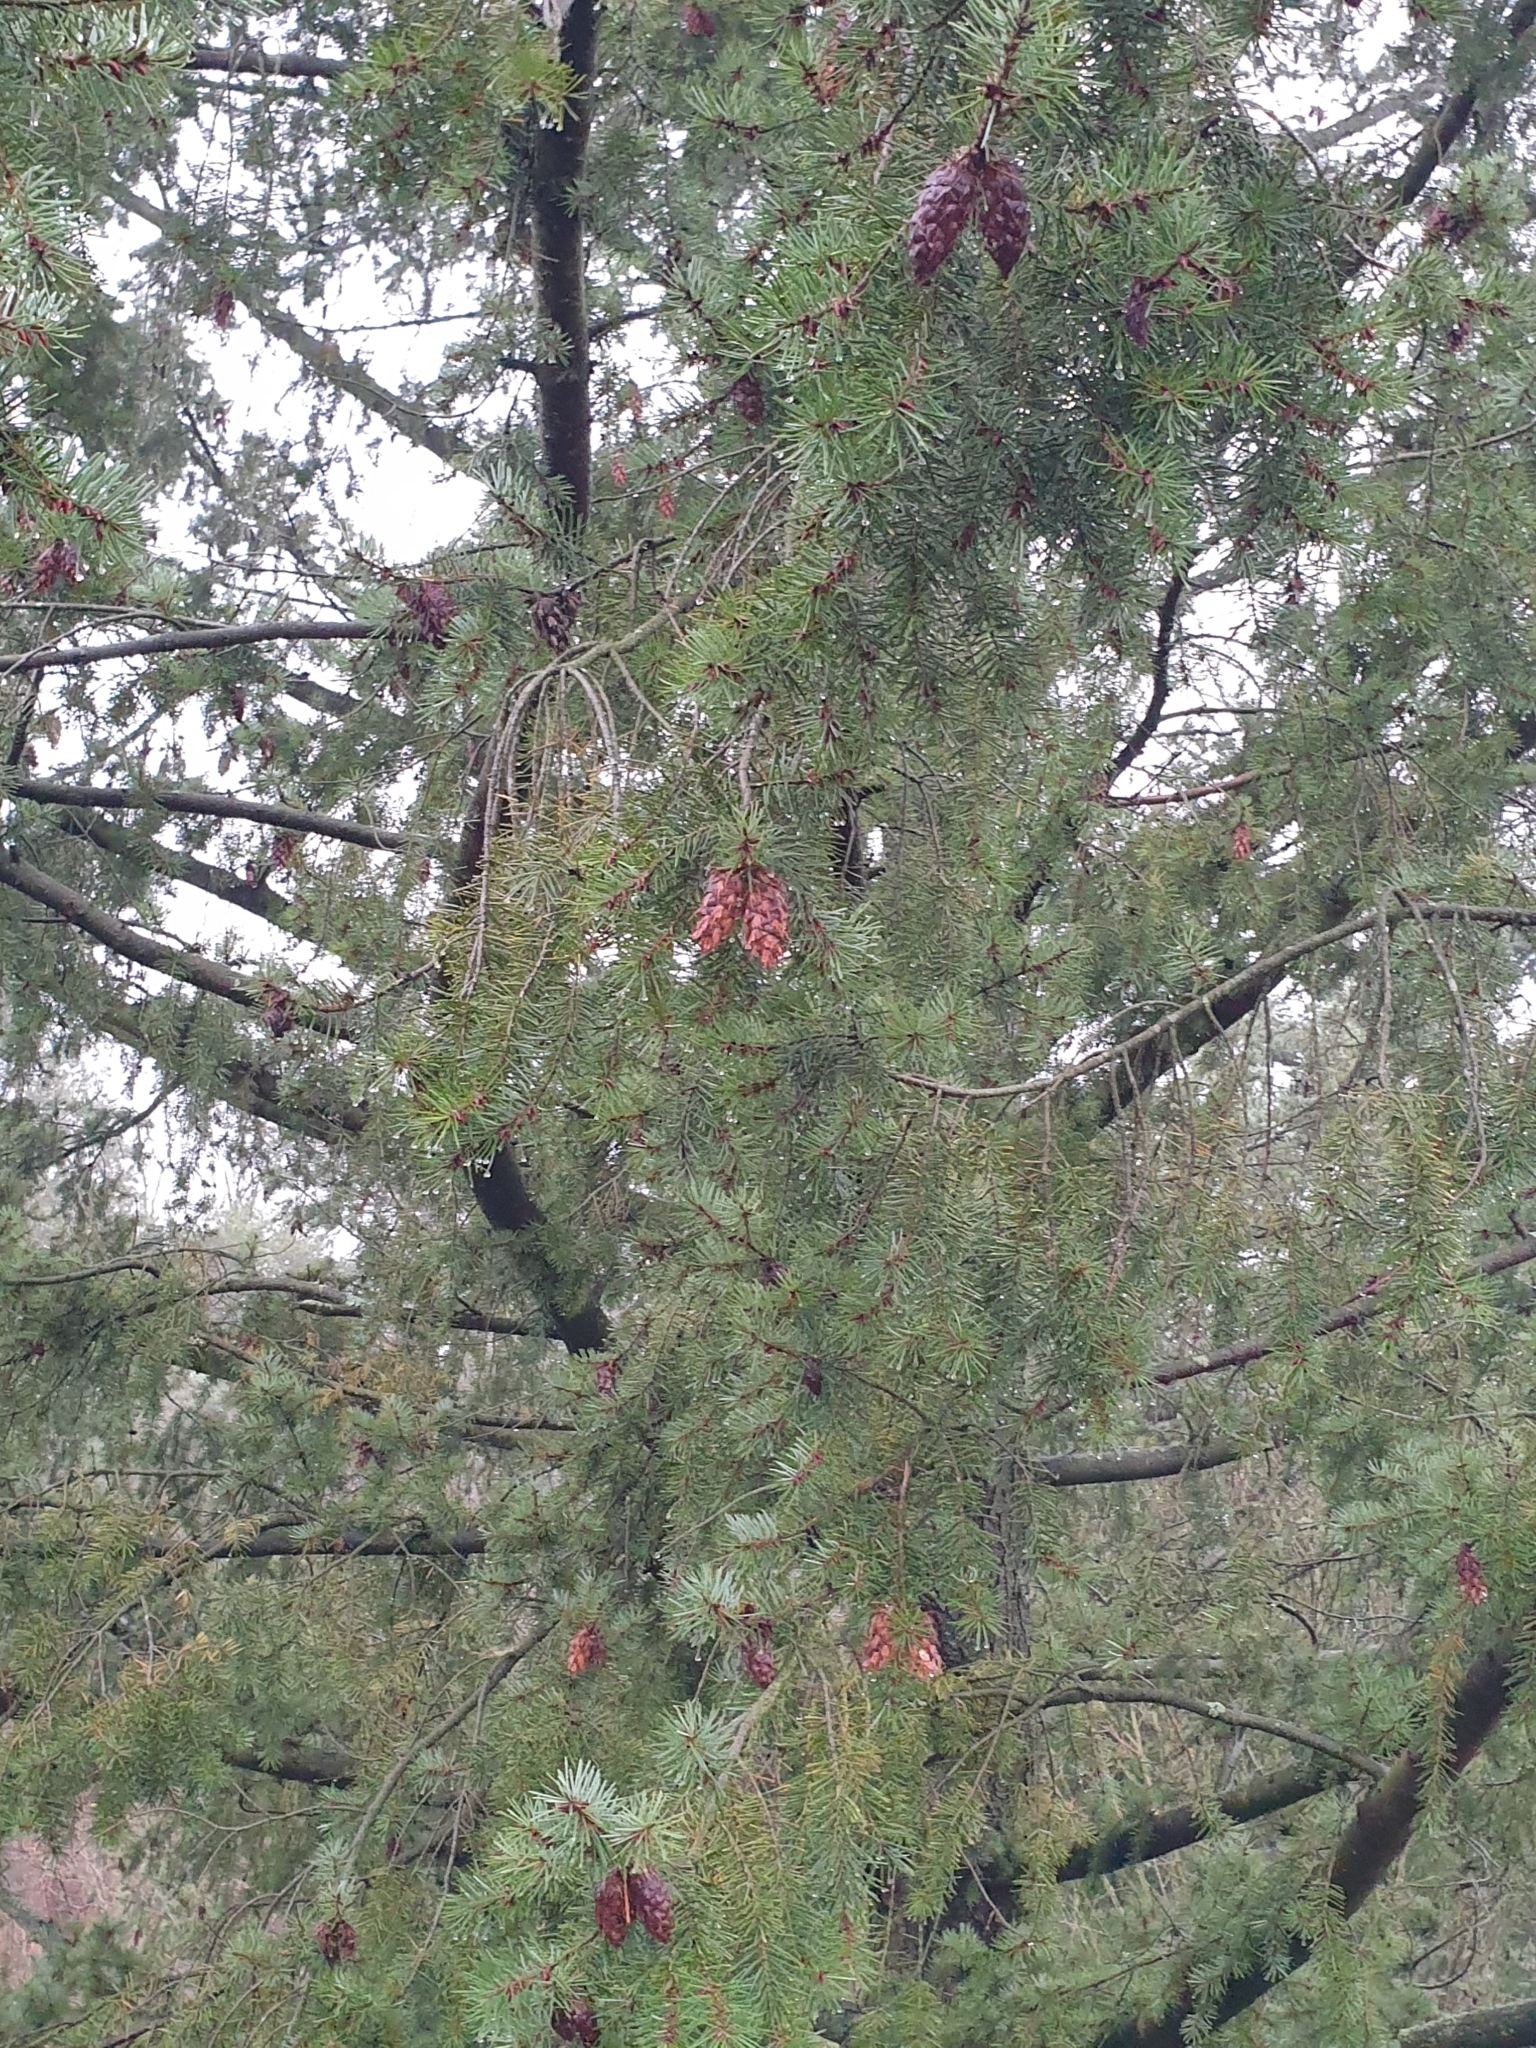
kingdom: Plantae
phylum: Tracheophyta
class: Pinopsida
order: Pinales
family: Pinaceae
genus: Pseudotsuga
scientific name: Pseudotsuga menziesii
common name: Douglas fir
